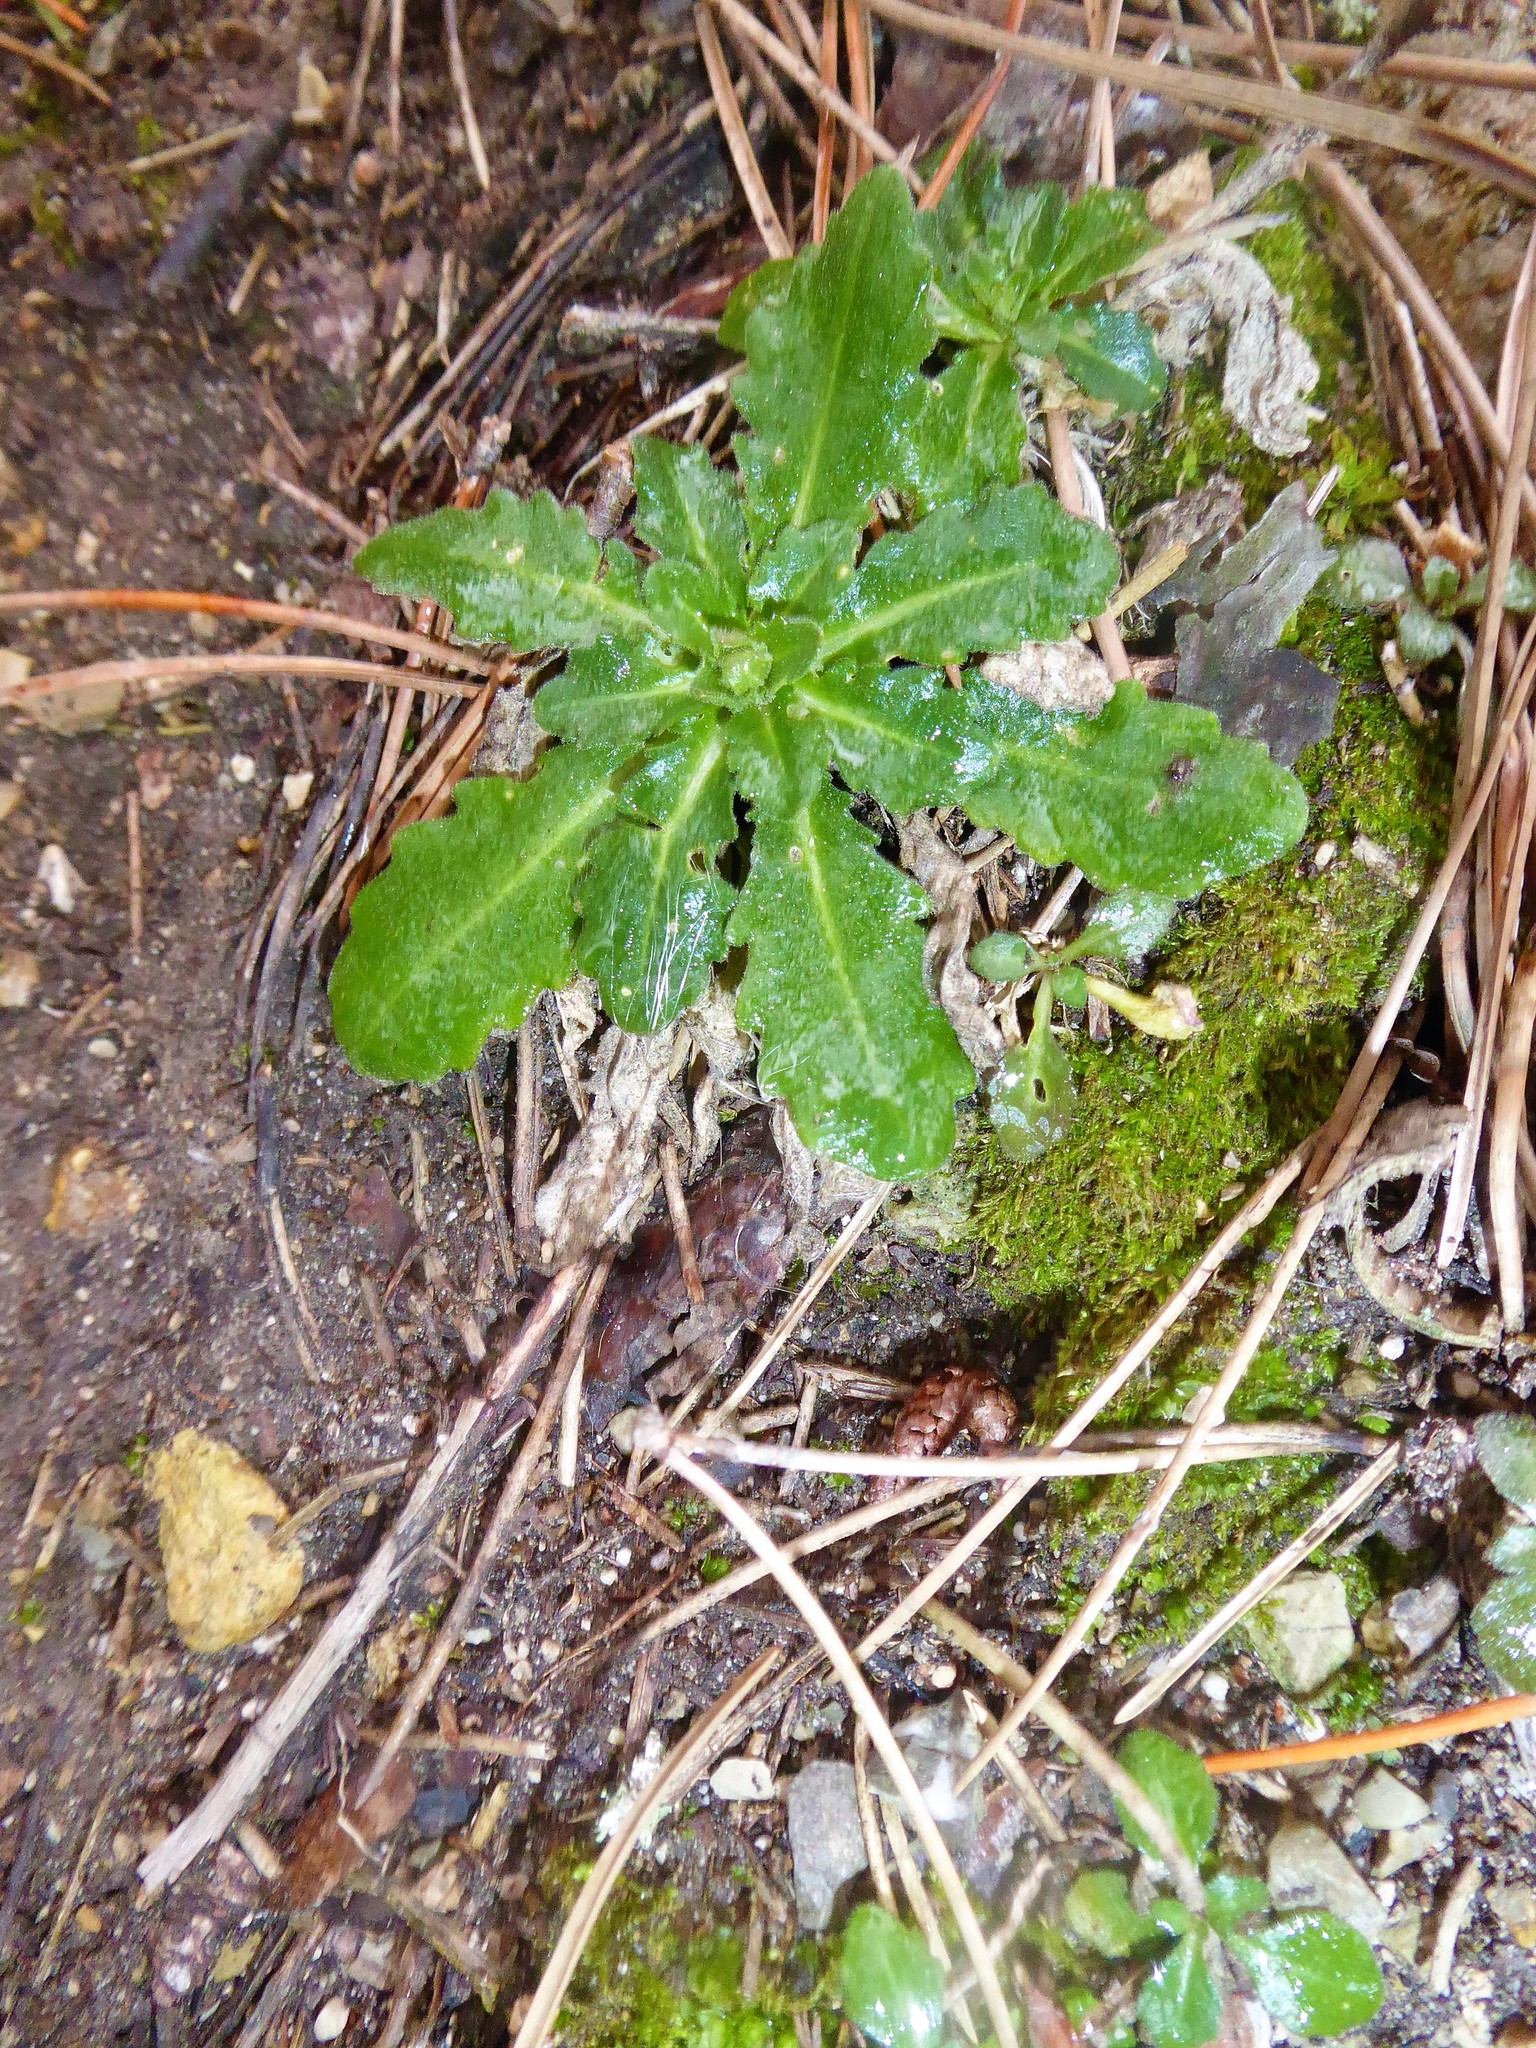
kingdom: Plantae
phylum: Tracheophyta
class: Magnoliopsida
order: Brassicales
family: Brassicaceae
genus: Arabis
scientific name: Arabis collina
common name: Rosy cress
